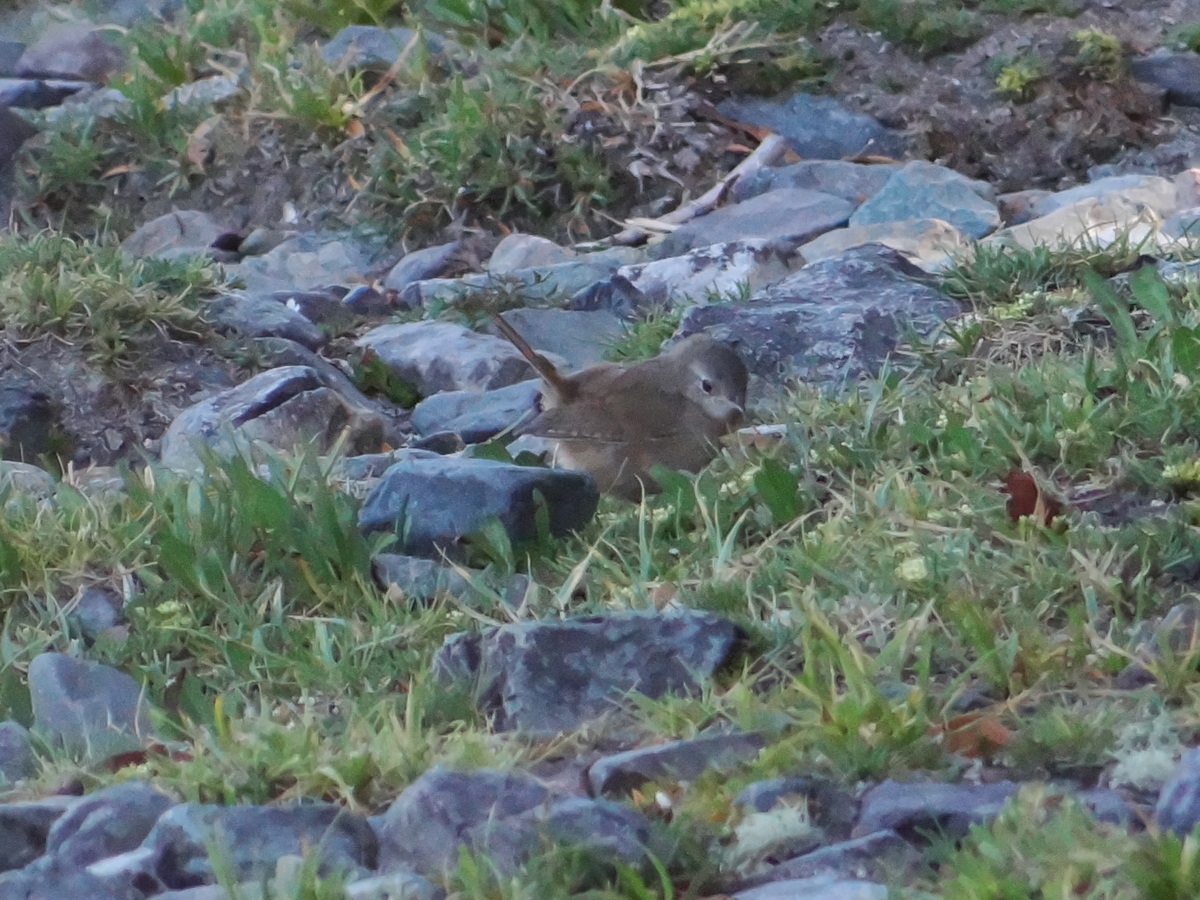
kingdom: Animalia
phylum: Chordata
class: Aves
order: Passeriformes
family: Troglodytidae
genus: Troglodytes
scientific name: Troglodytes aedon
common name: House wren
